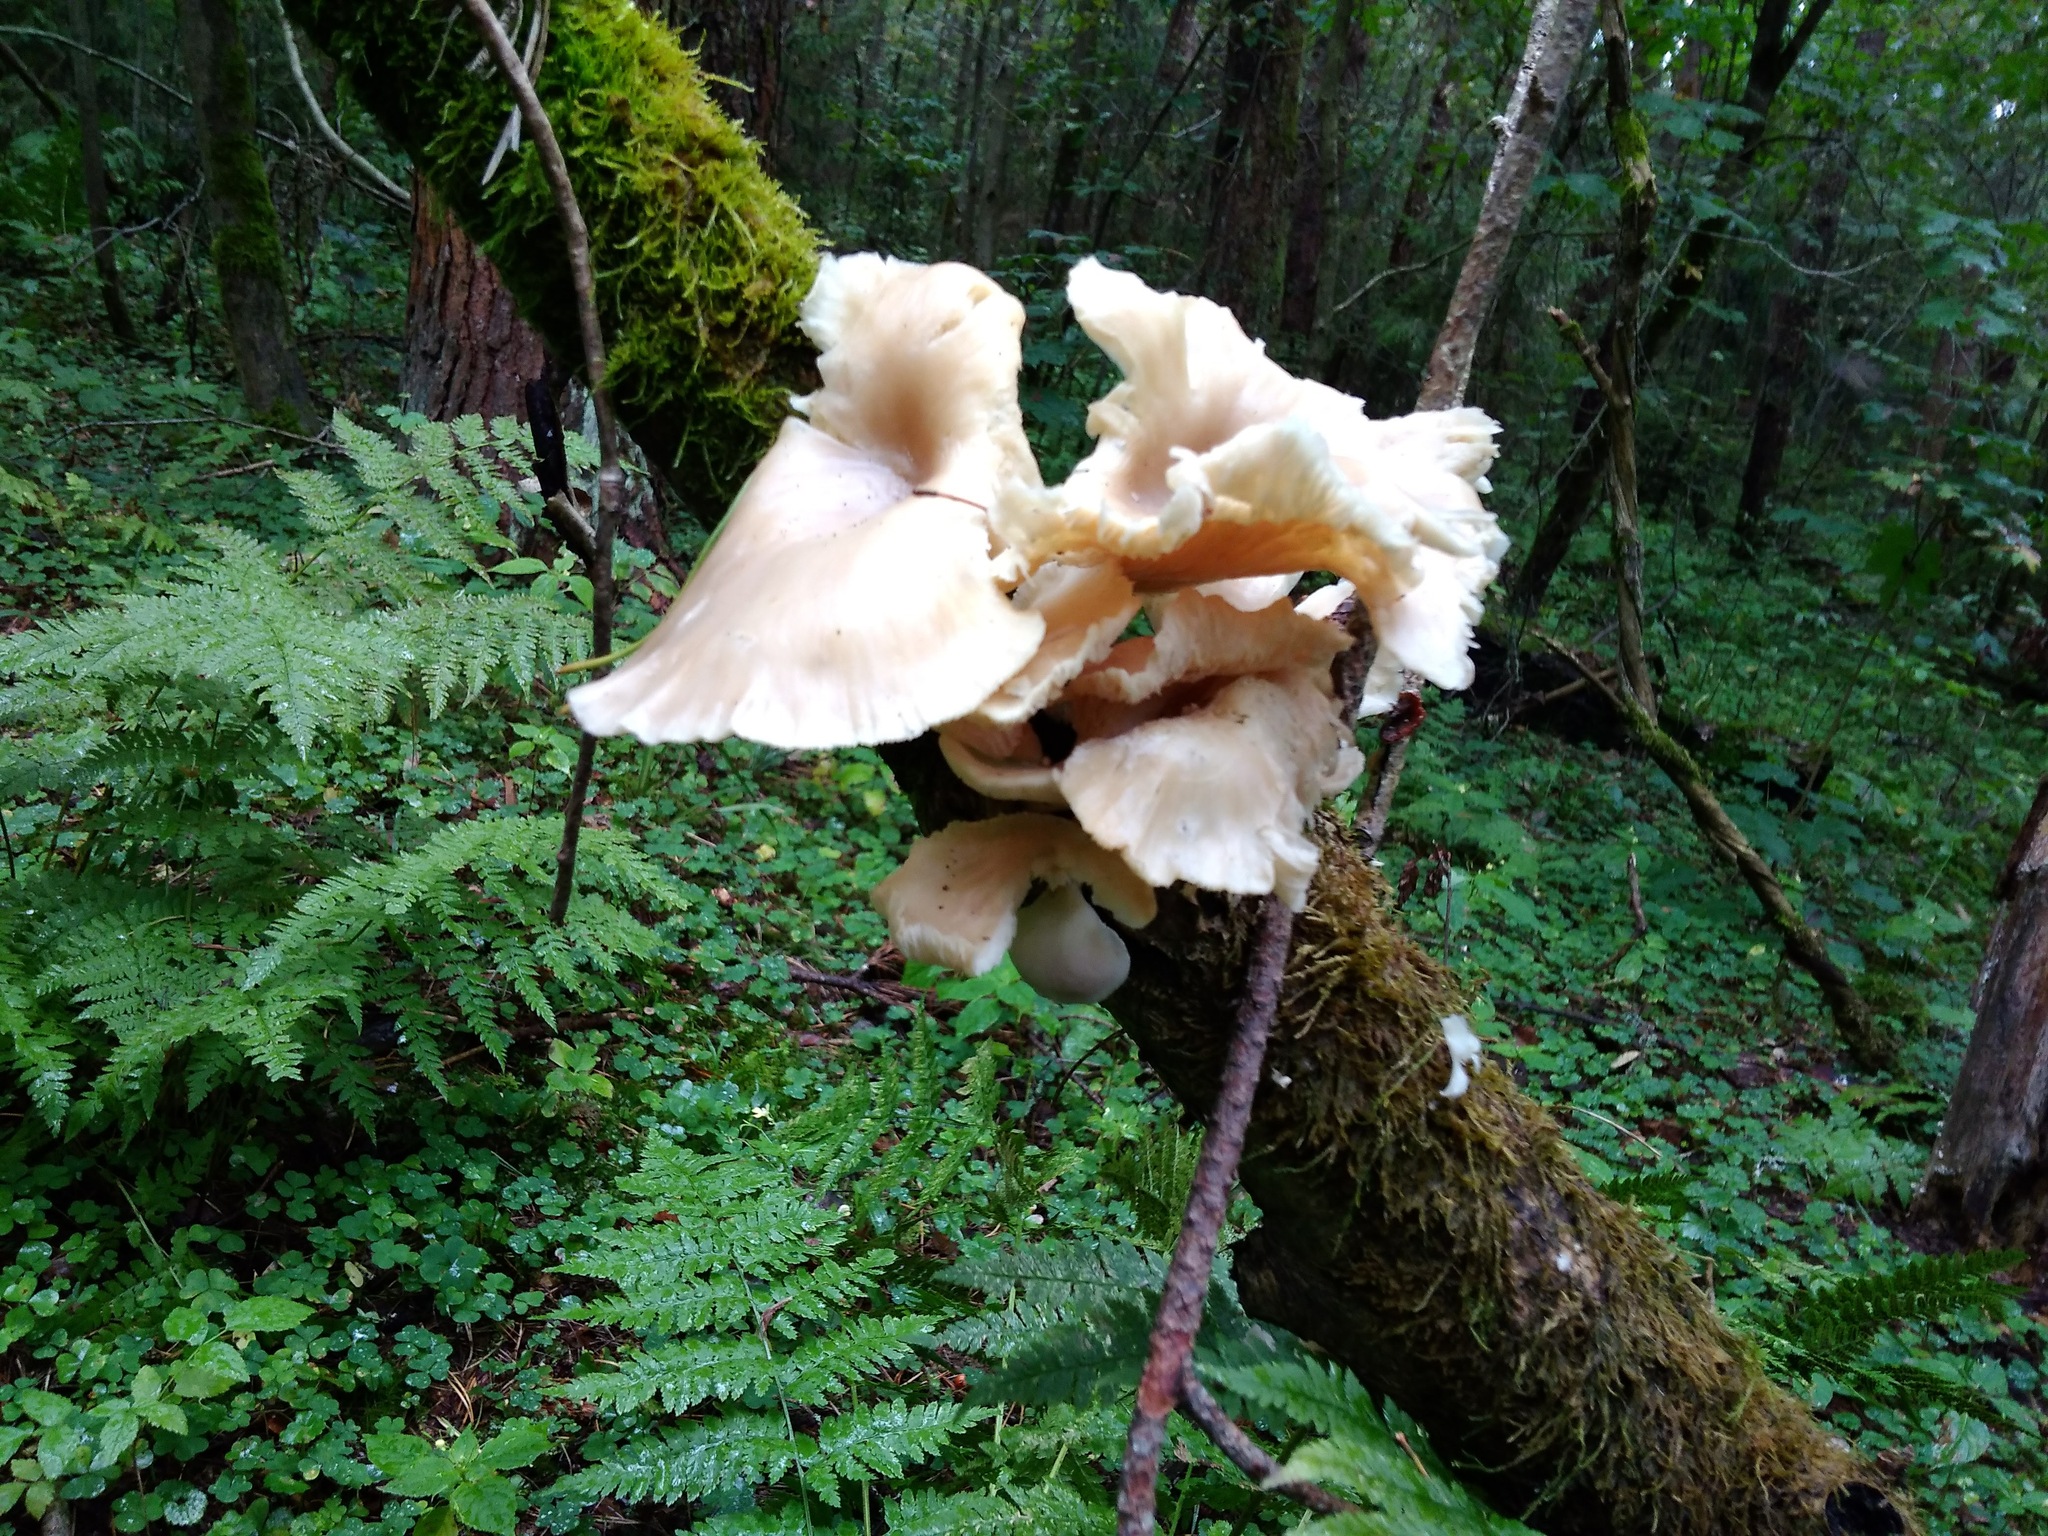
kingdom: Fungi
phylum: Basidiomycota
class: Agaricomycetes
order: Agaricales
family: Pleurotaceae
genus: Pleurotus
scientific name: Pleurotus ostreatus
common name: Oyster mushroom
